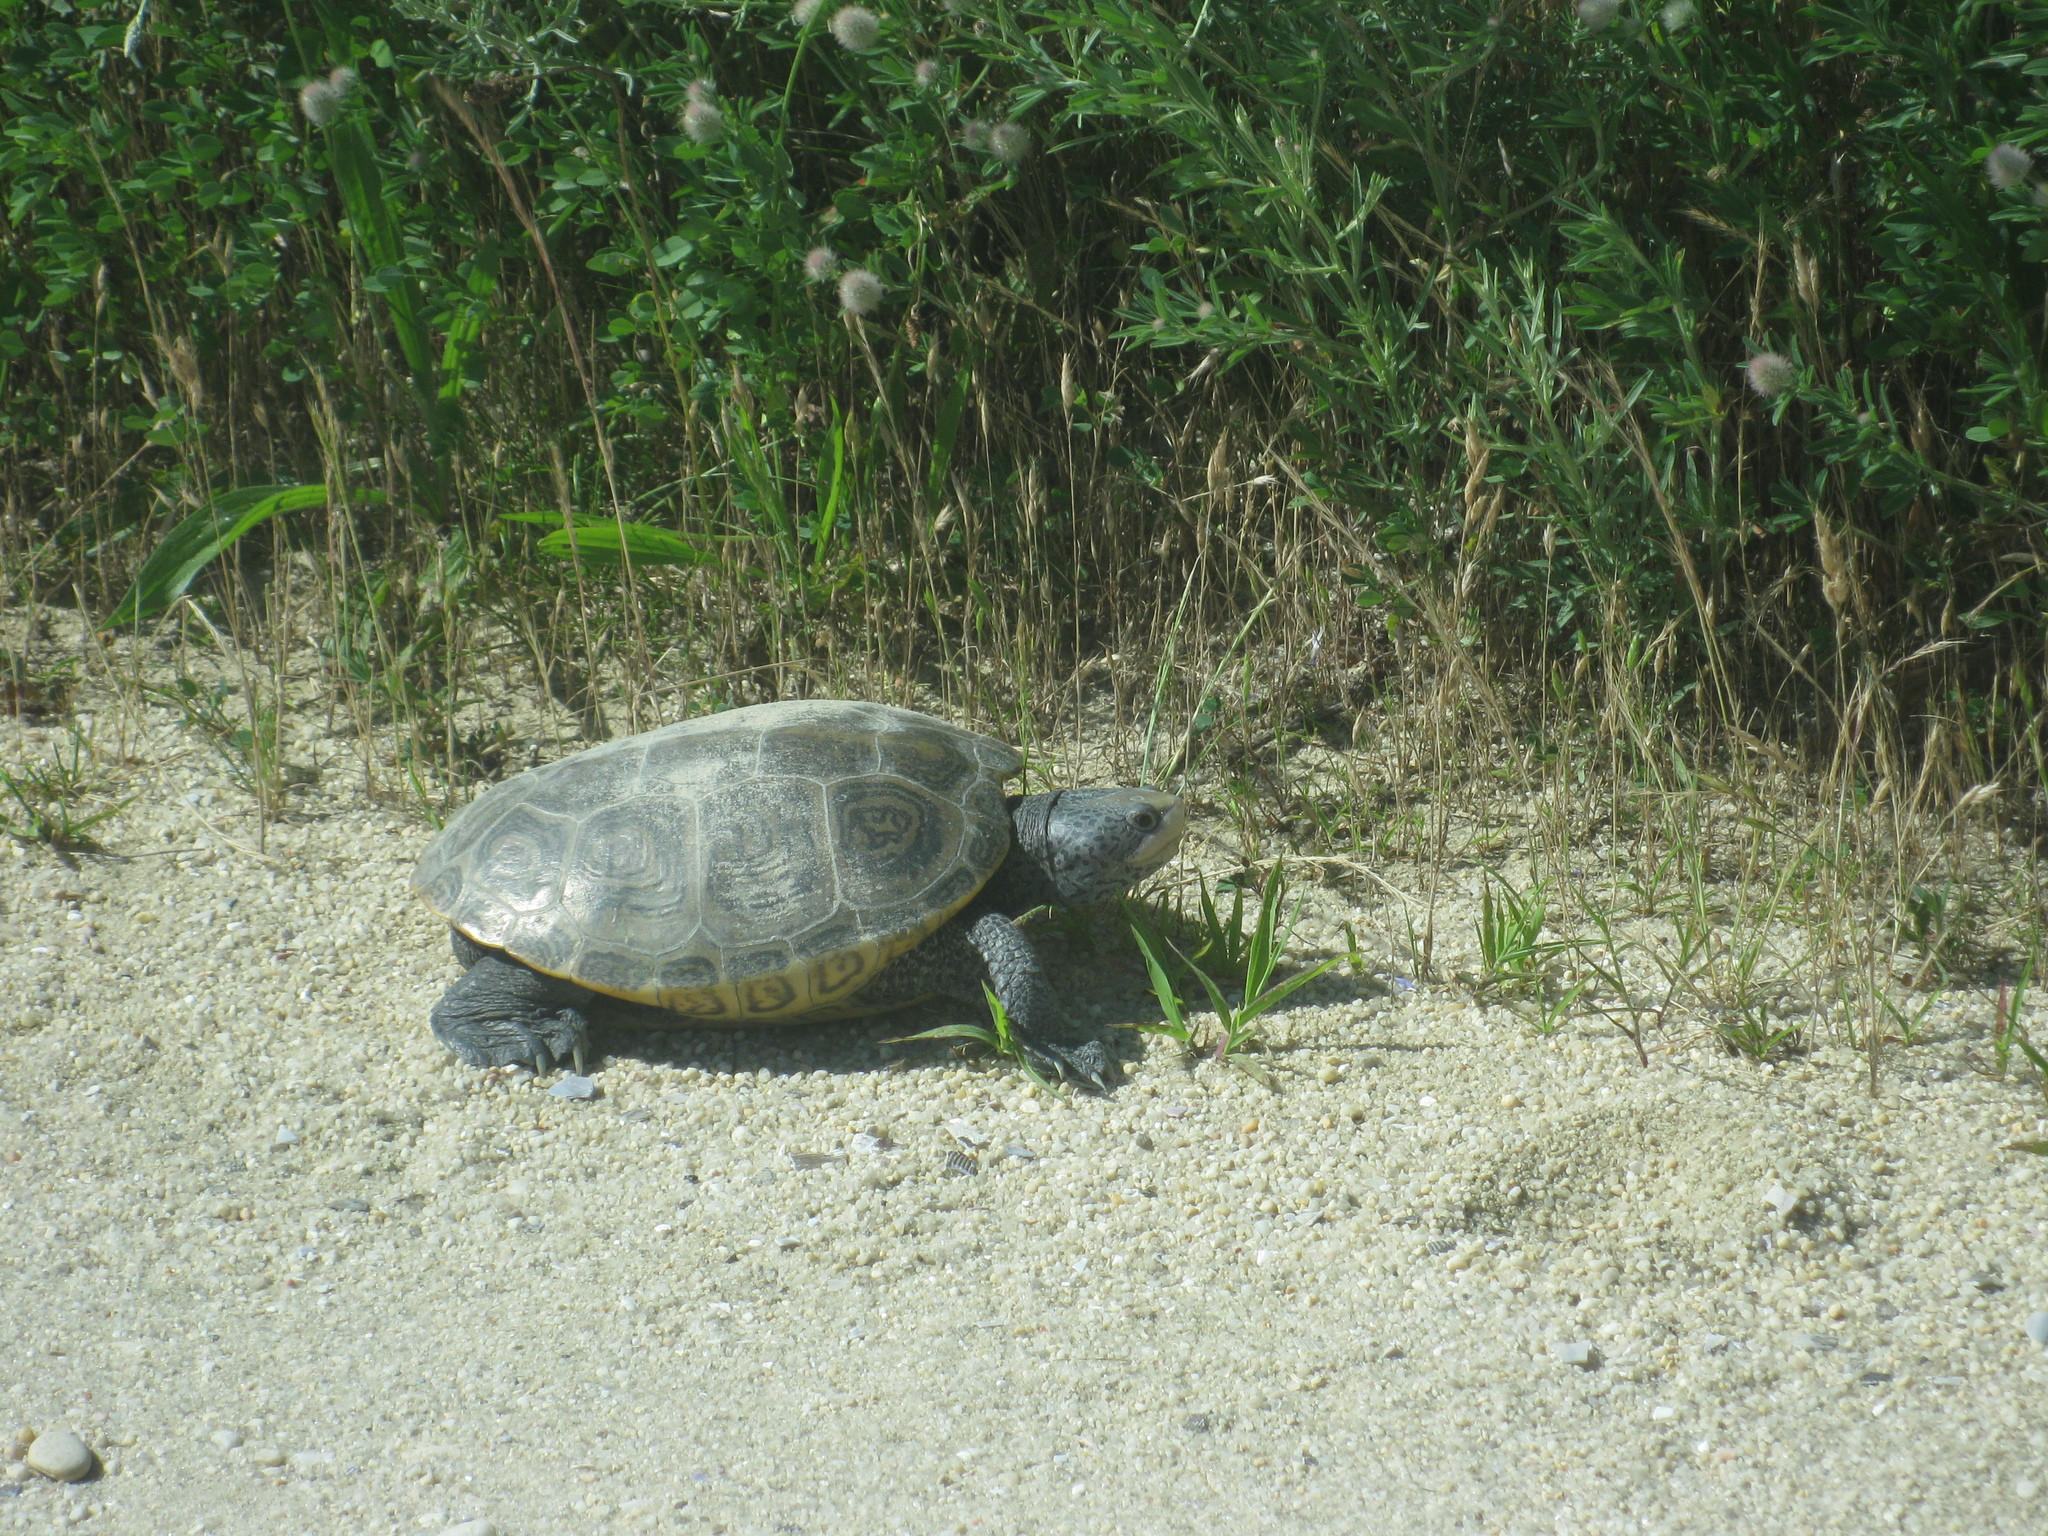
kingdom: Animalia
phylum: Chordata
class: Testudines
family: Emydidae
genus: Malaclemys
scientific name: Malaclemys terrapin
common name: Diamondback terrapin
